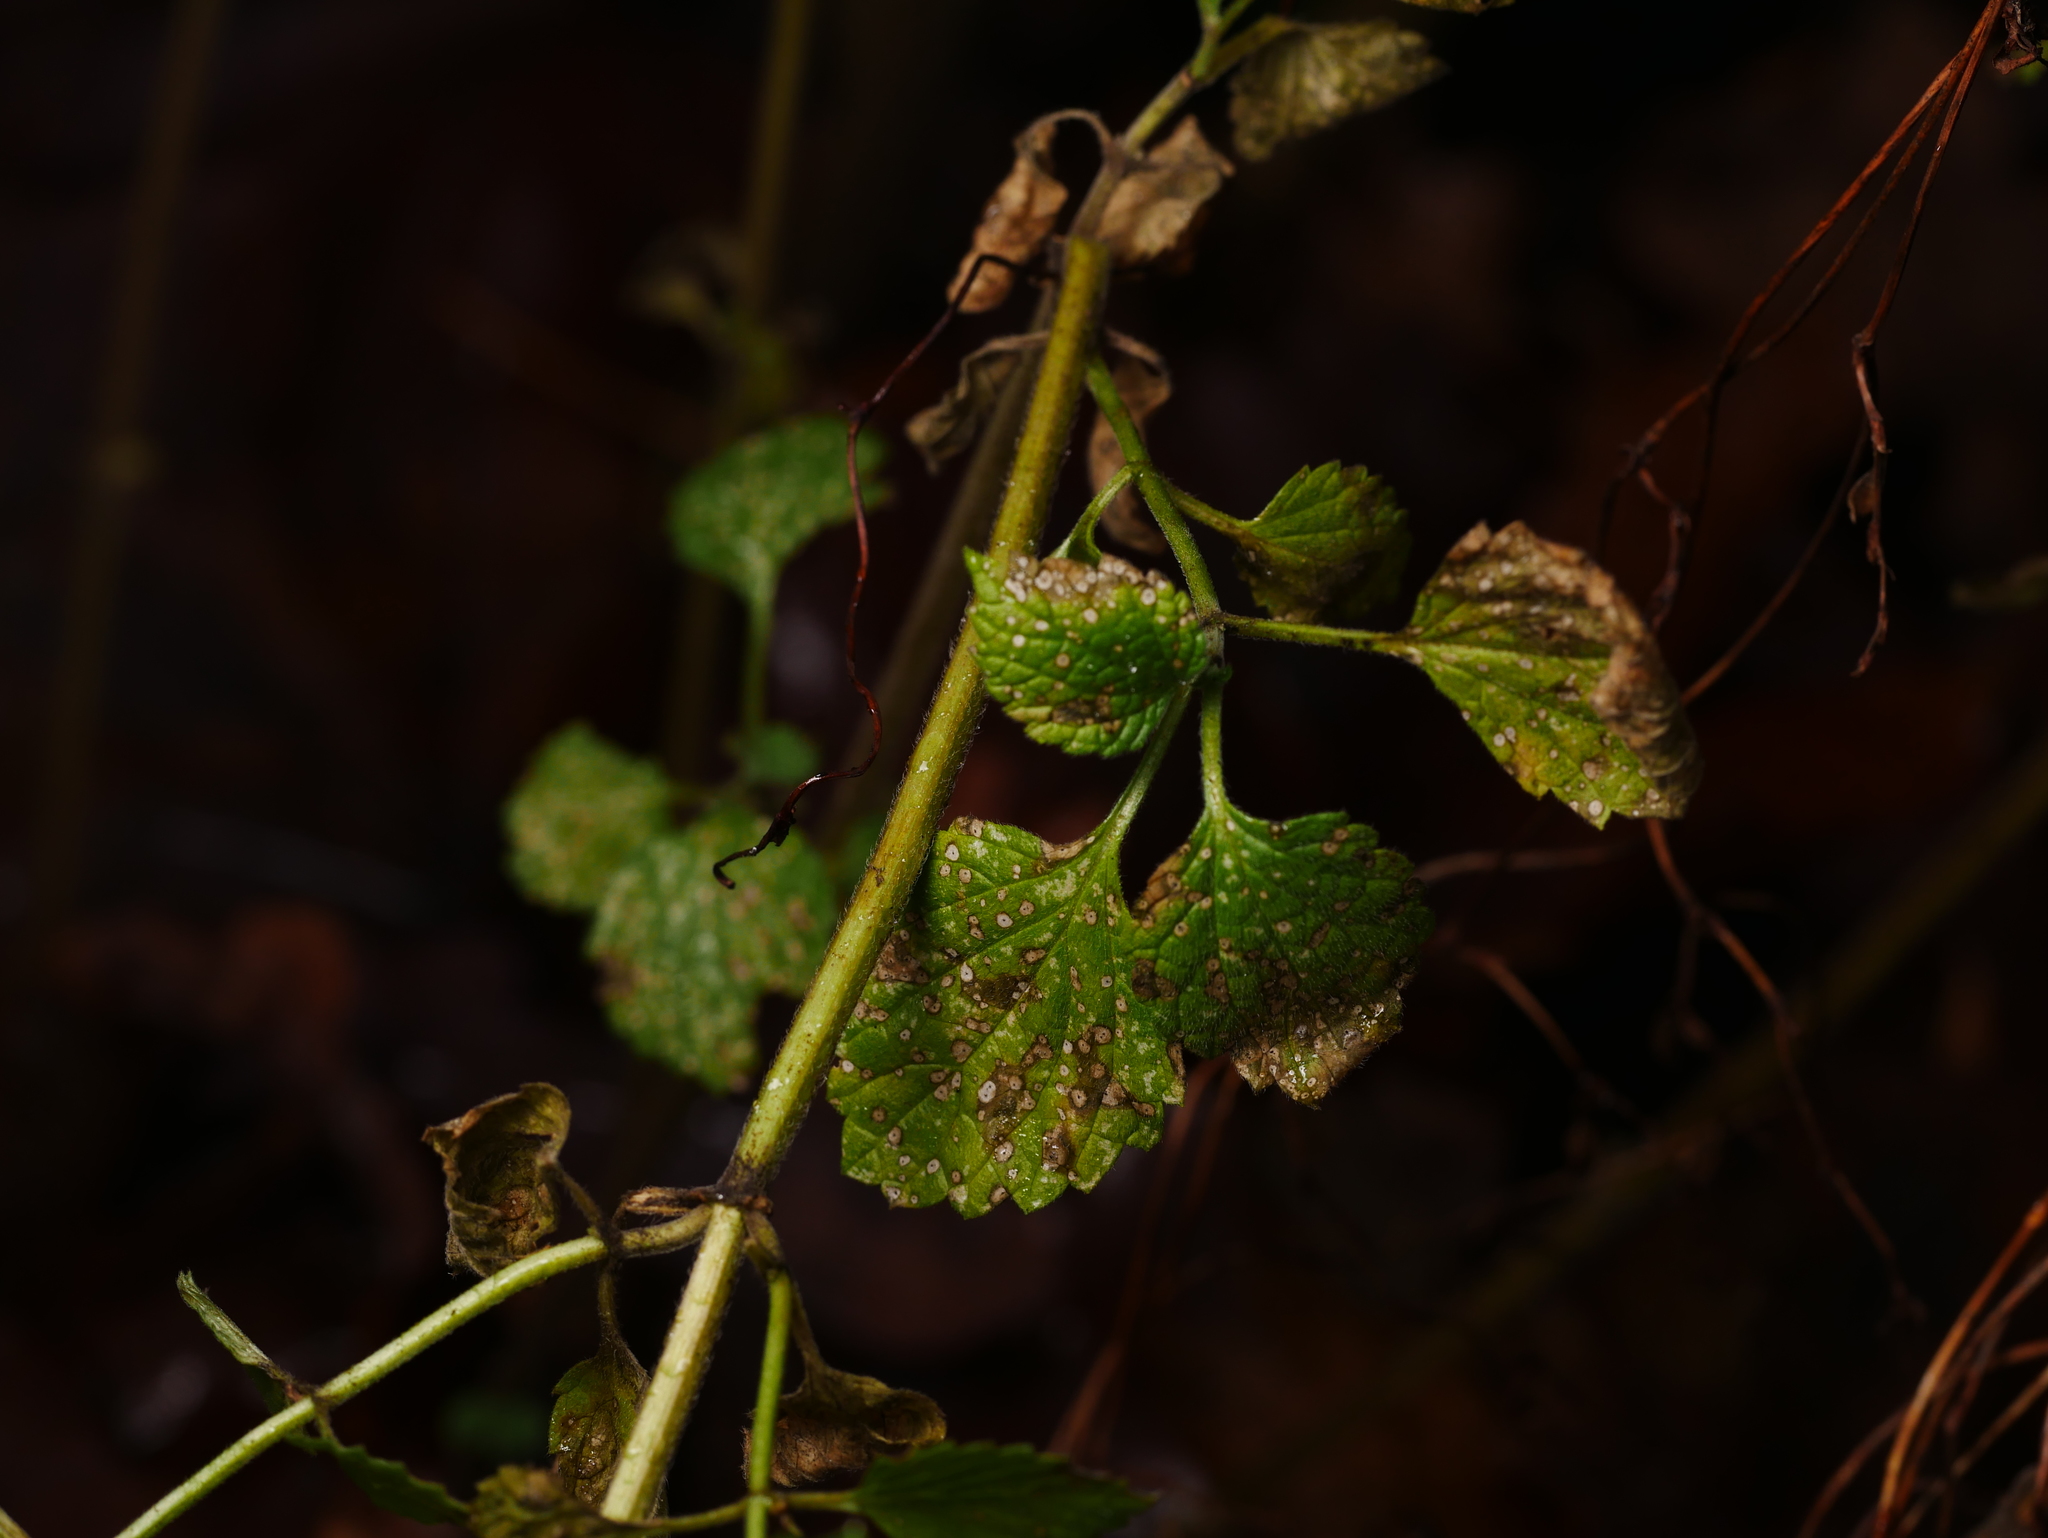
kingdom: Plantae
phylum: Tracheophyta
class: Magnoliopsida
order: Lamiales
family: Lamiaceae
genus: Ballota
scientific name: Ballota nigra
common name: Black horehound
